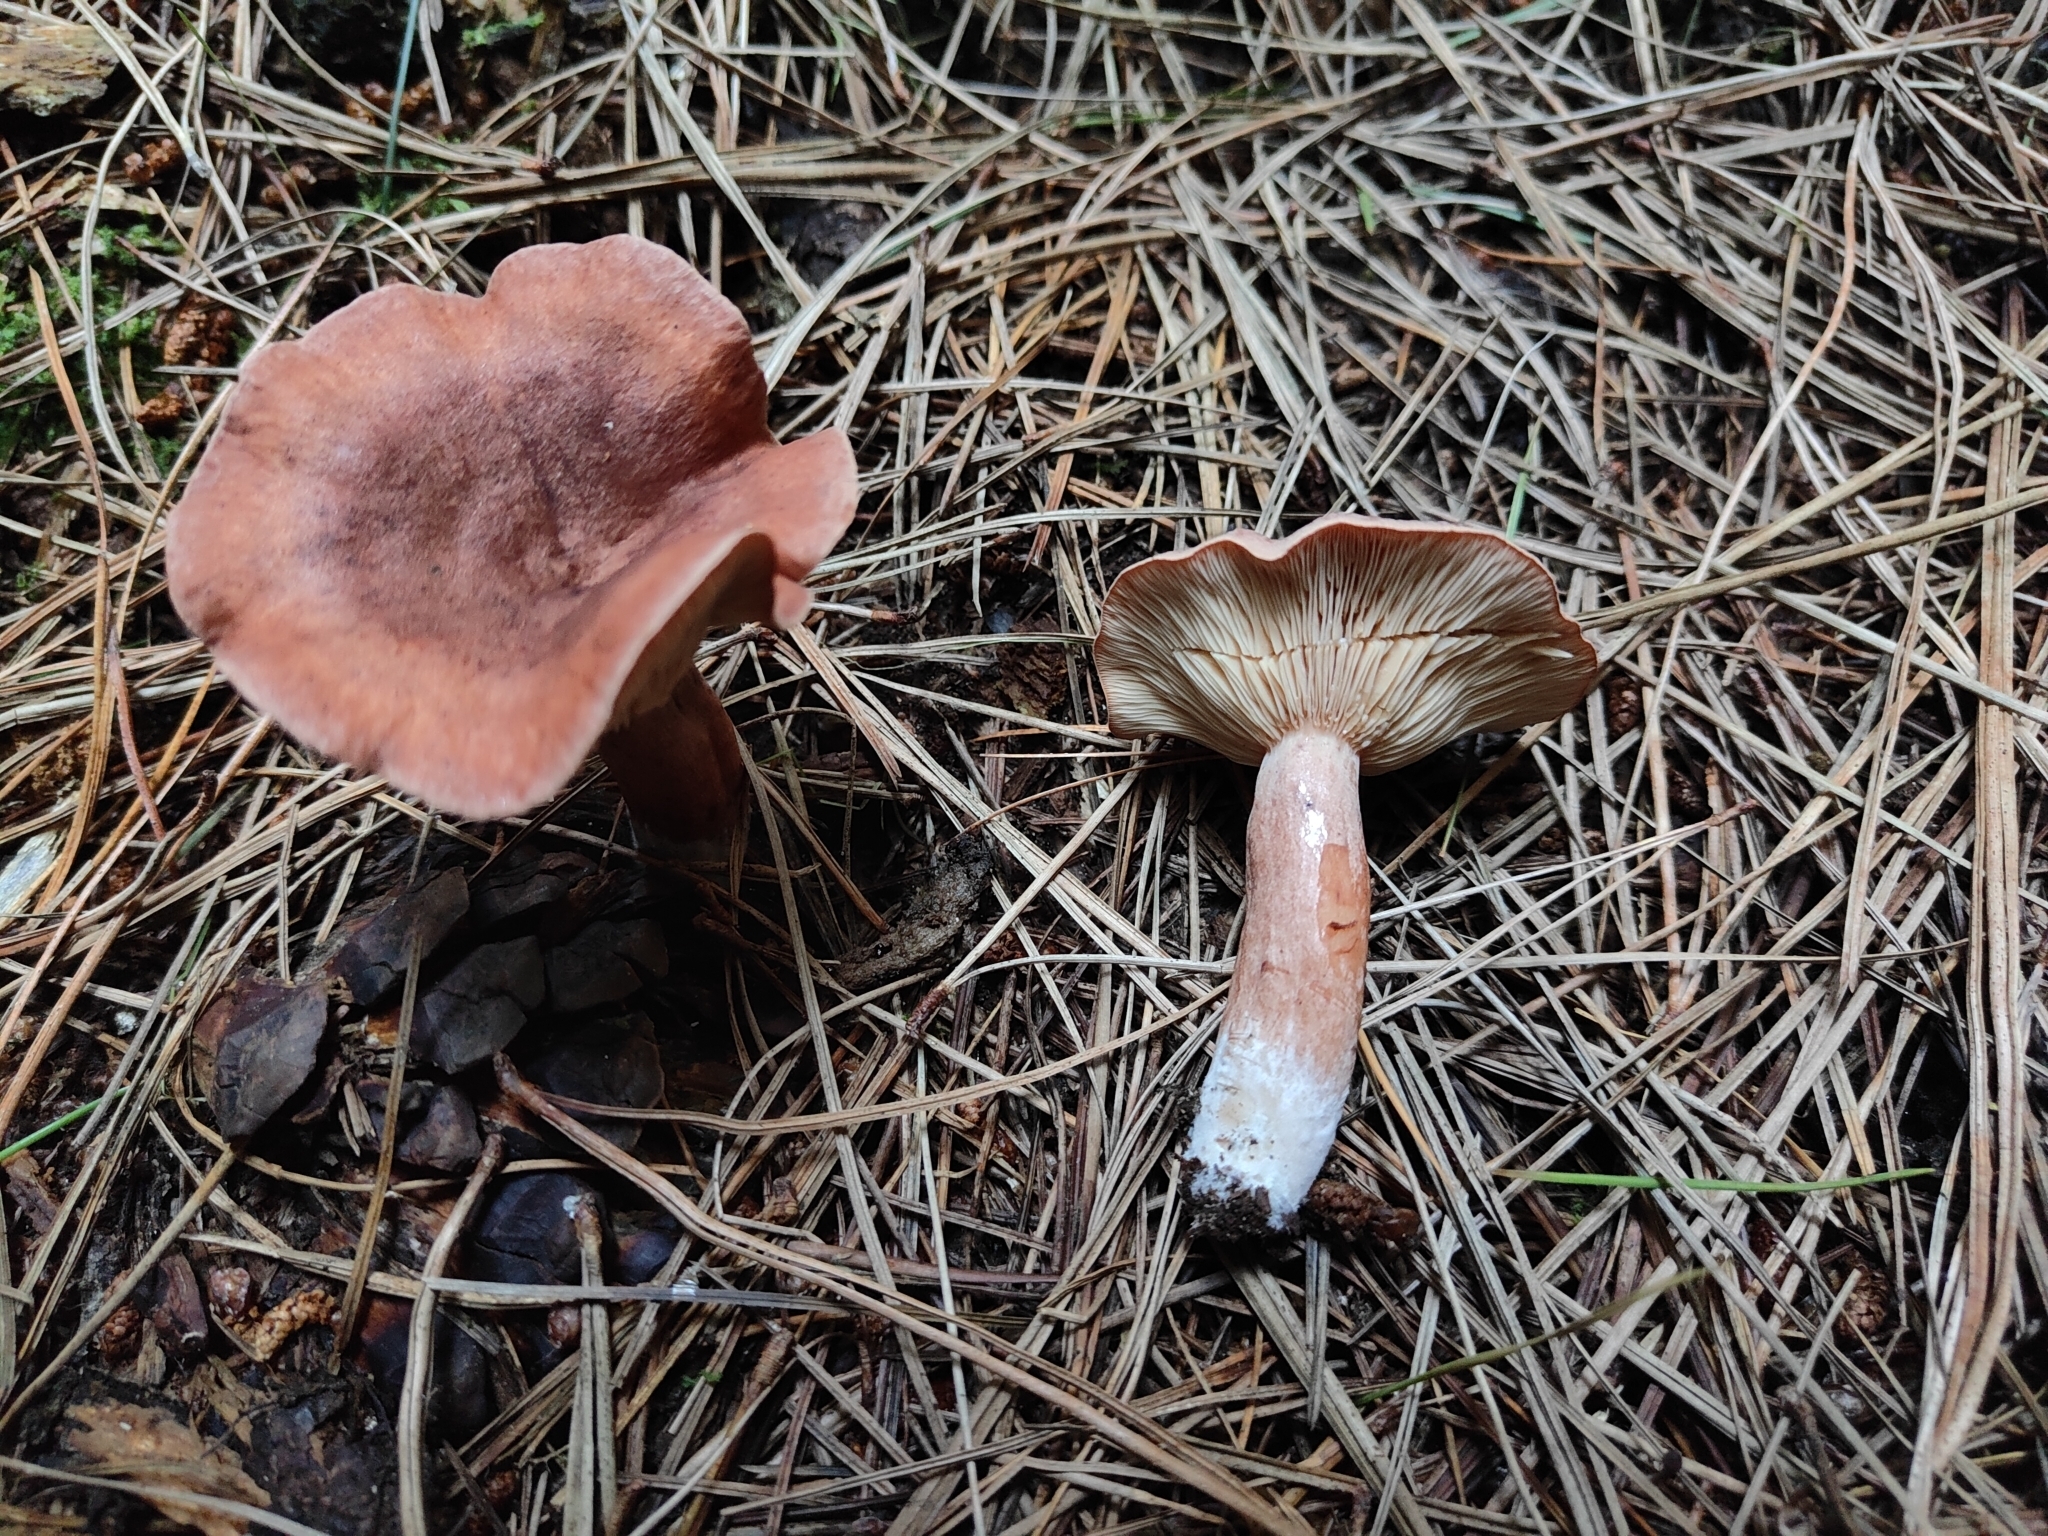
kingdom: Fungi
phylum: Basidiomycota
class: Agaricomycetes
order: Russulales
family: Russulaceae
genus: Lactarius
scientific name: Lactarius rufus
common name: Rufous milk-cap
